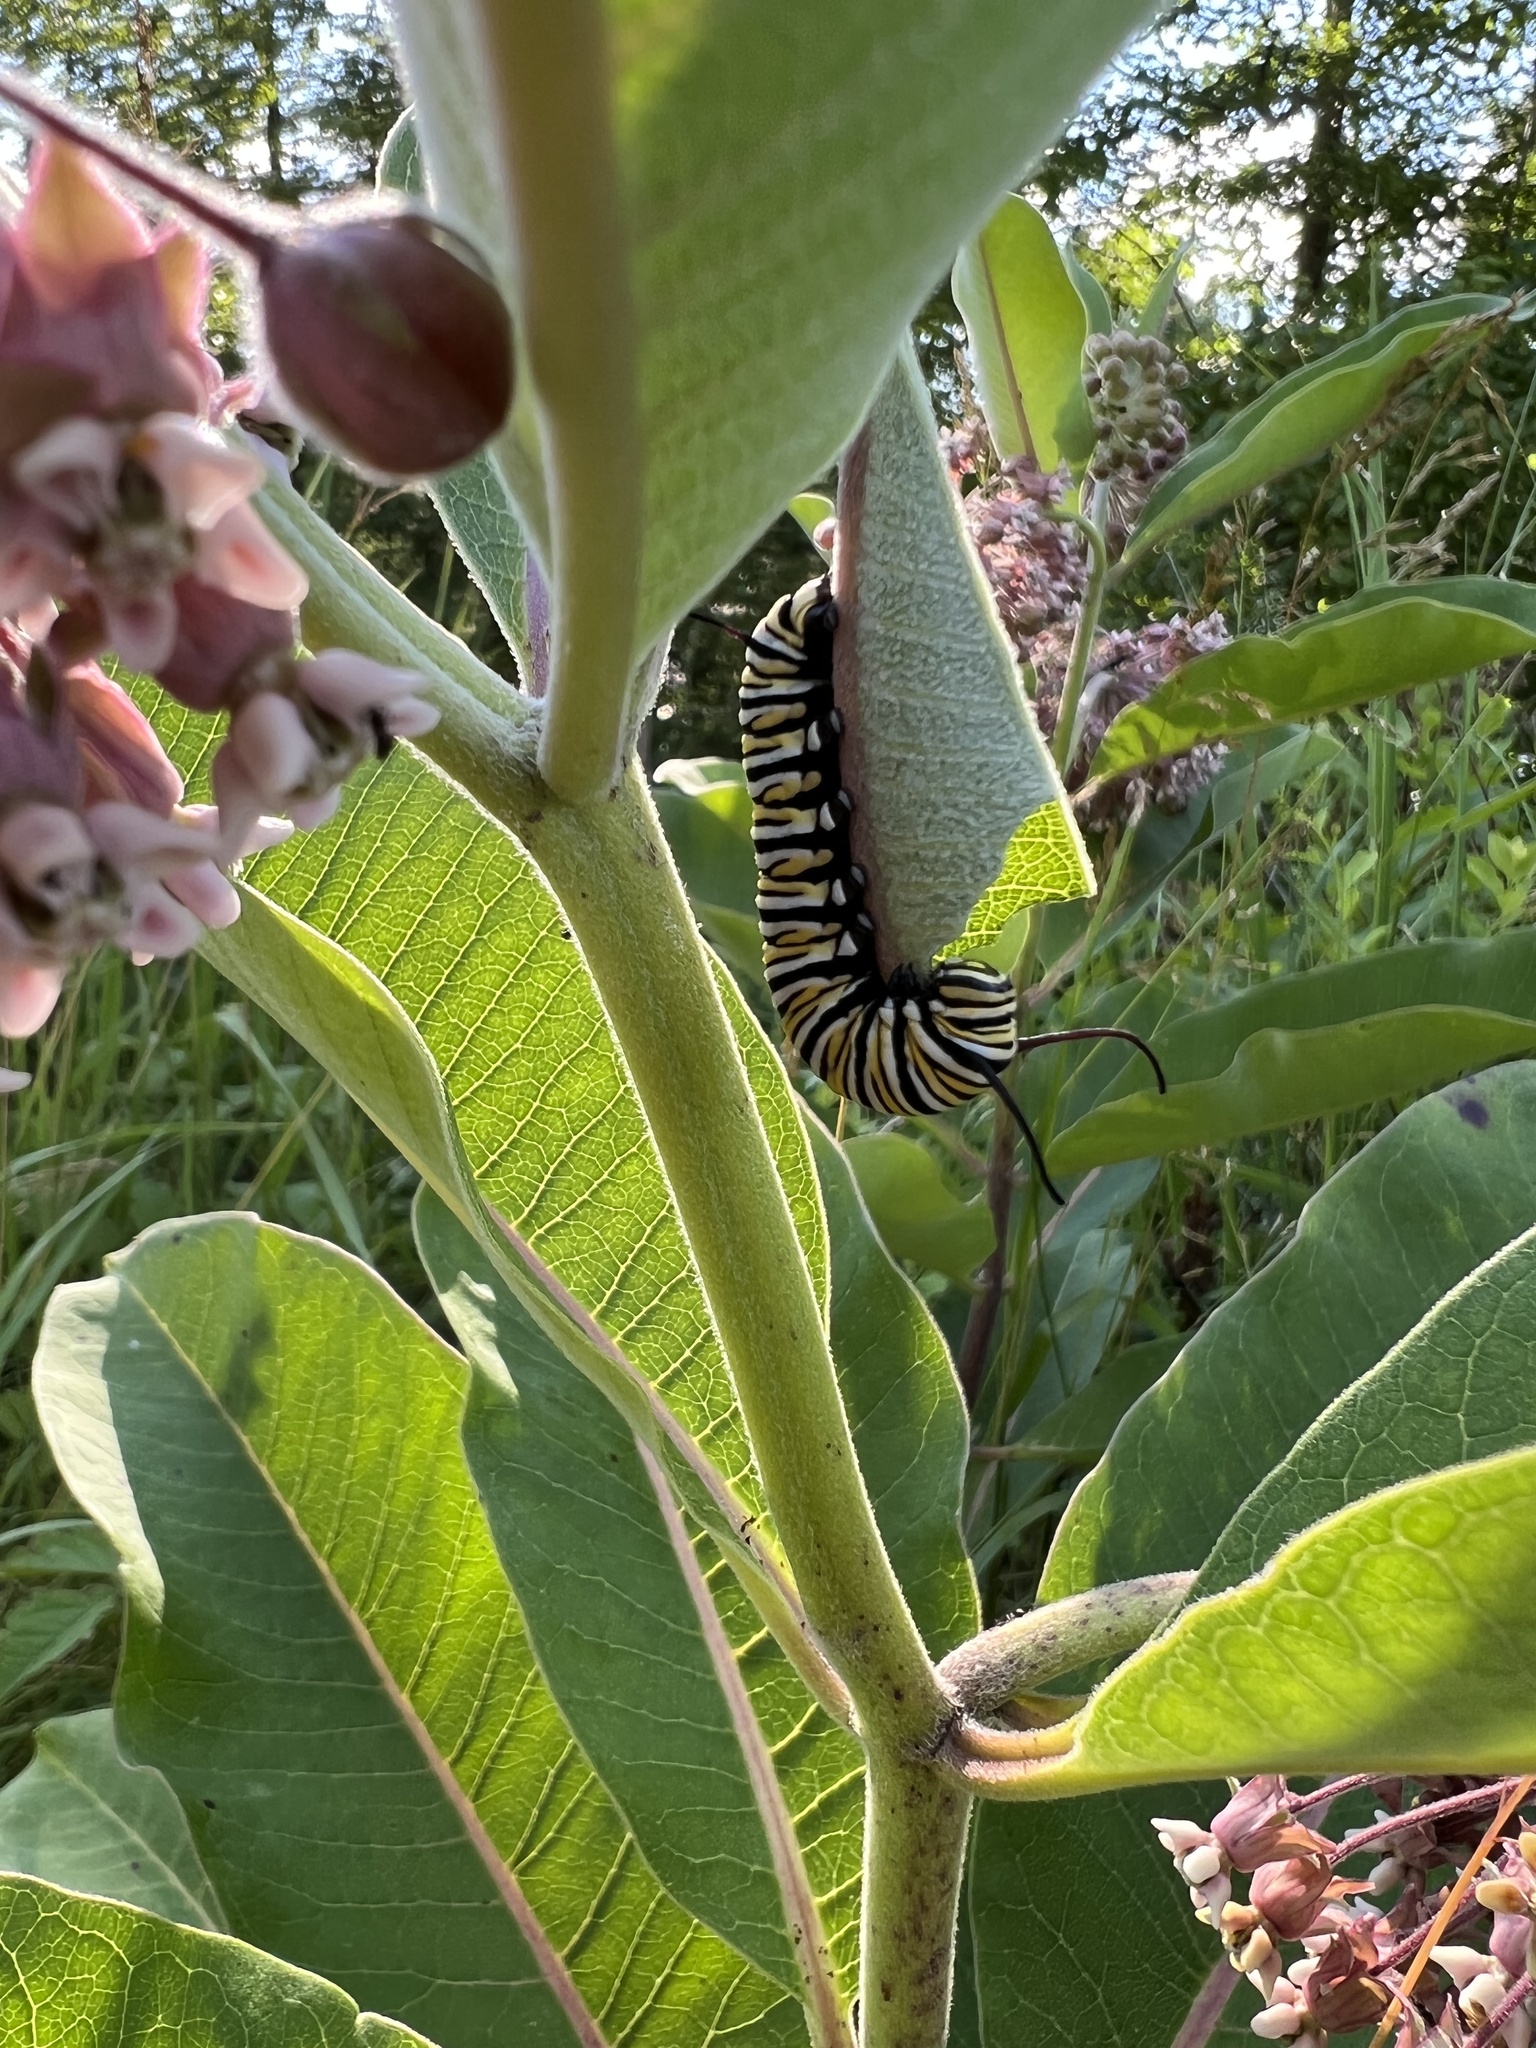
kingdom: Animalia
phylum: Arthropoda
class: Insecta
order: Lepidoptera
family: Nymphalidae
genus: Danaus
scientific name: Danaus plexippus
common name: Monarch
